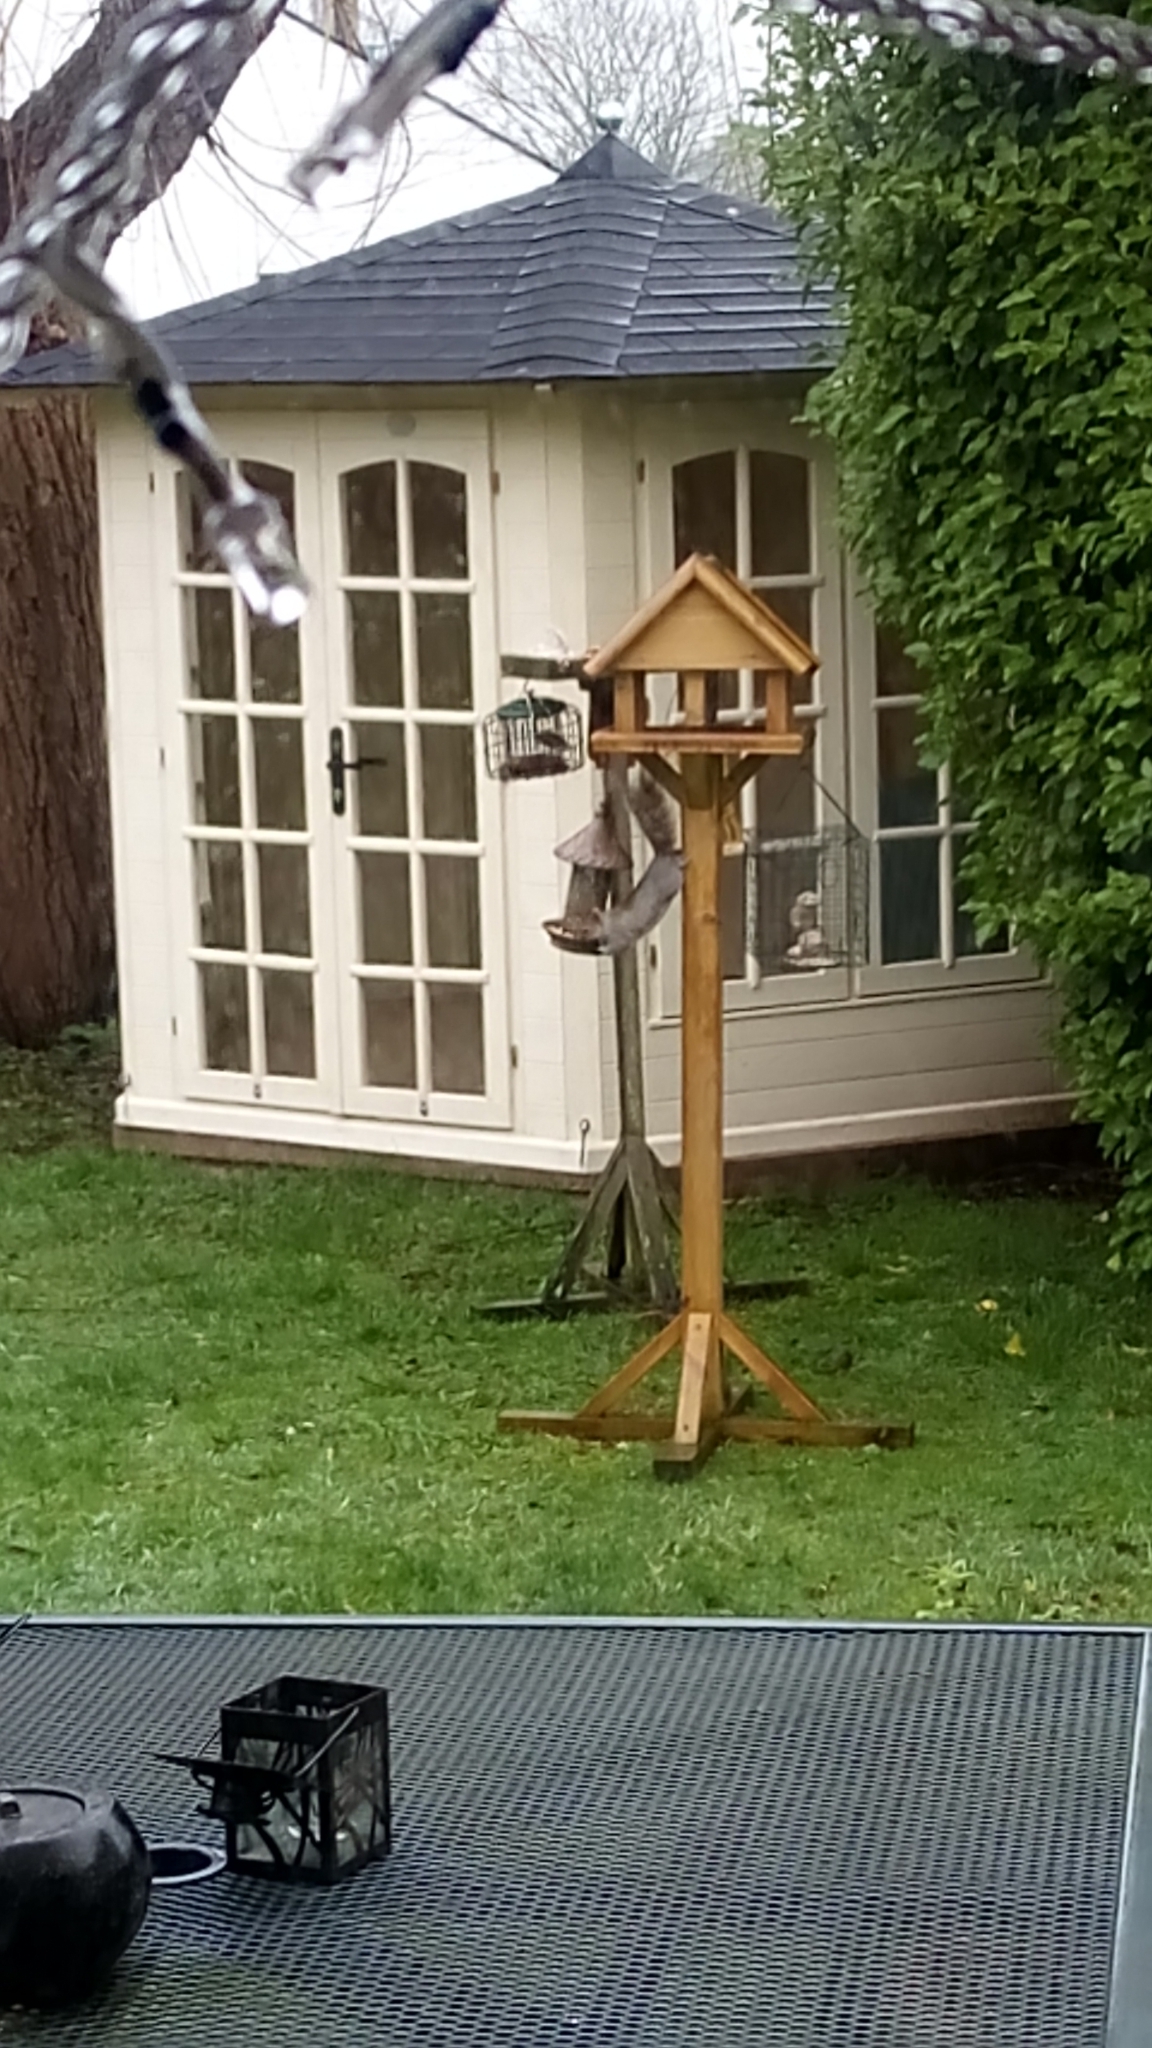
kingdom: Animalia
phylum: Chordata
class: Mammalia
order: Rodentia
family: Sciuridae
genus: Sciurus
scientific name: Sciurus carolinensis
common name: Eastern gray squirrel
